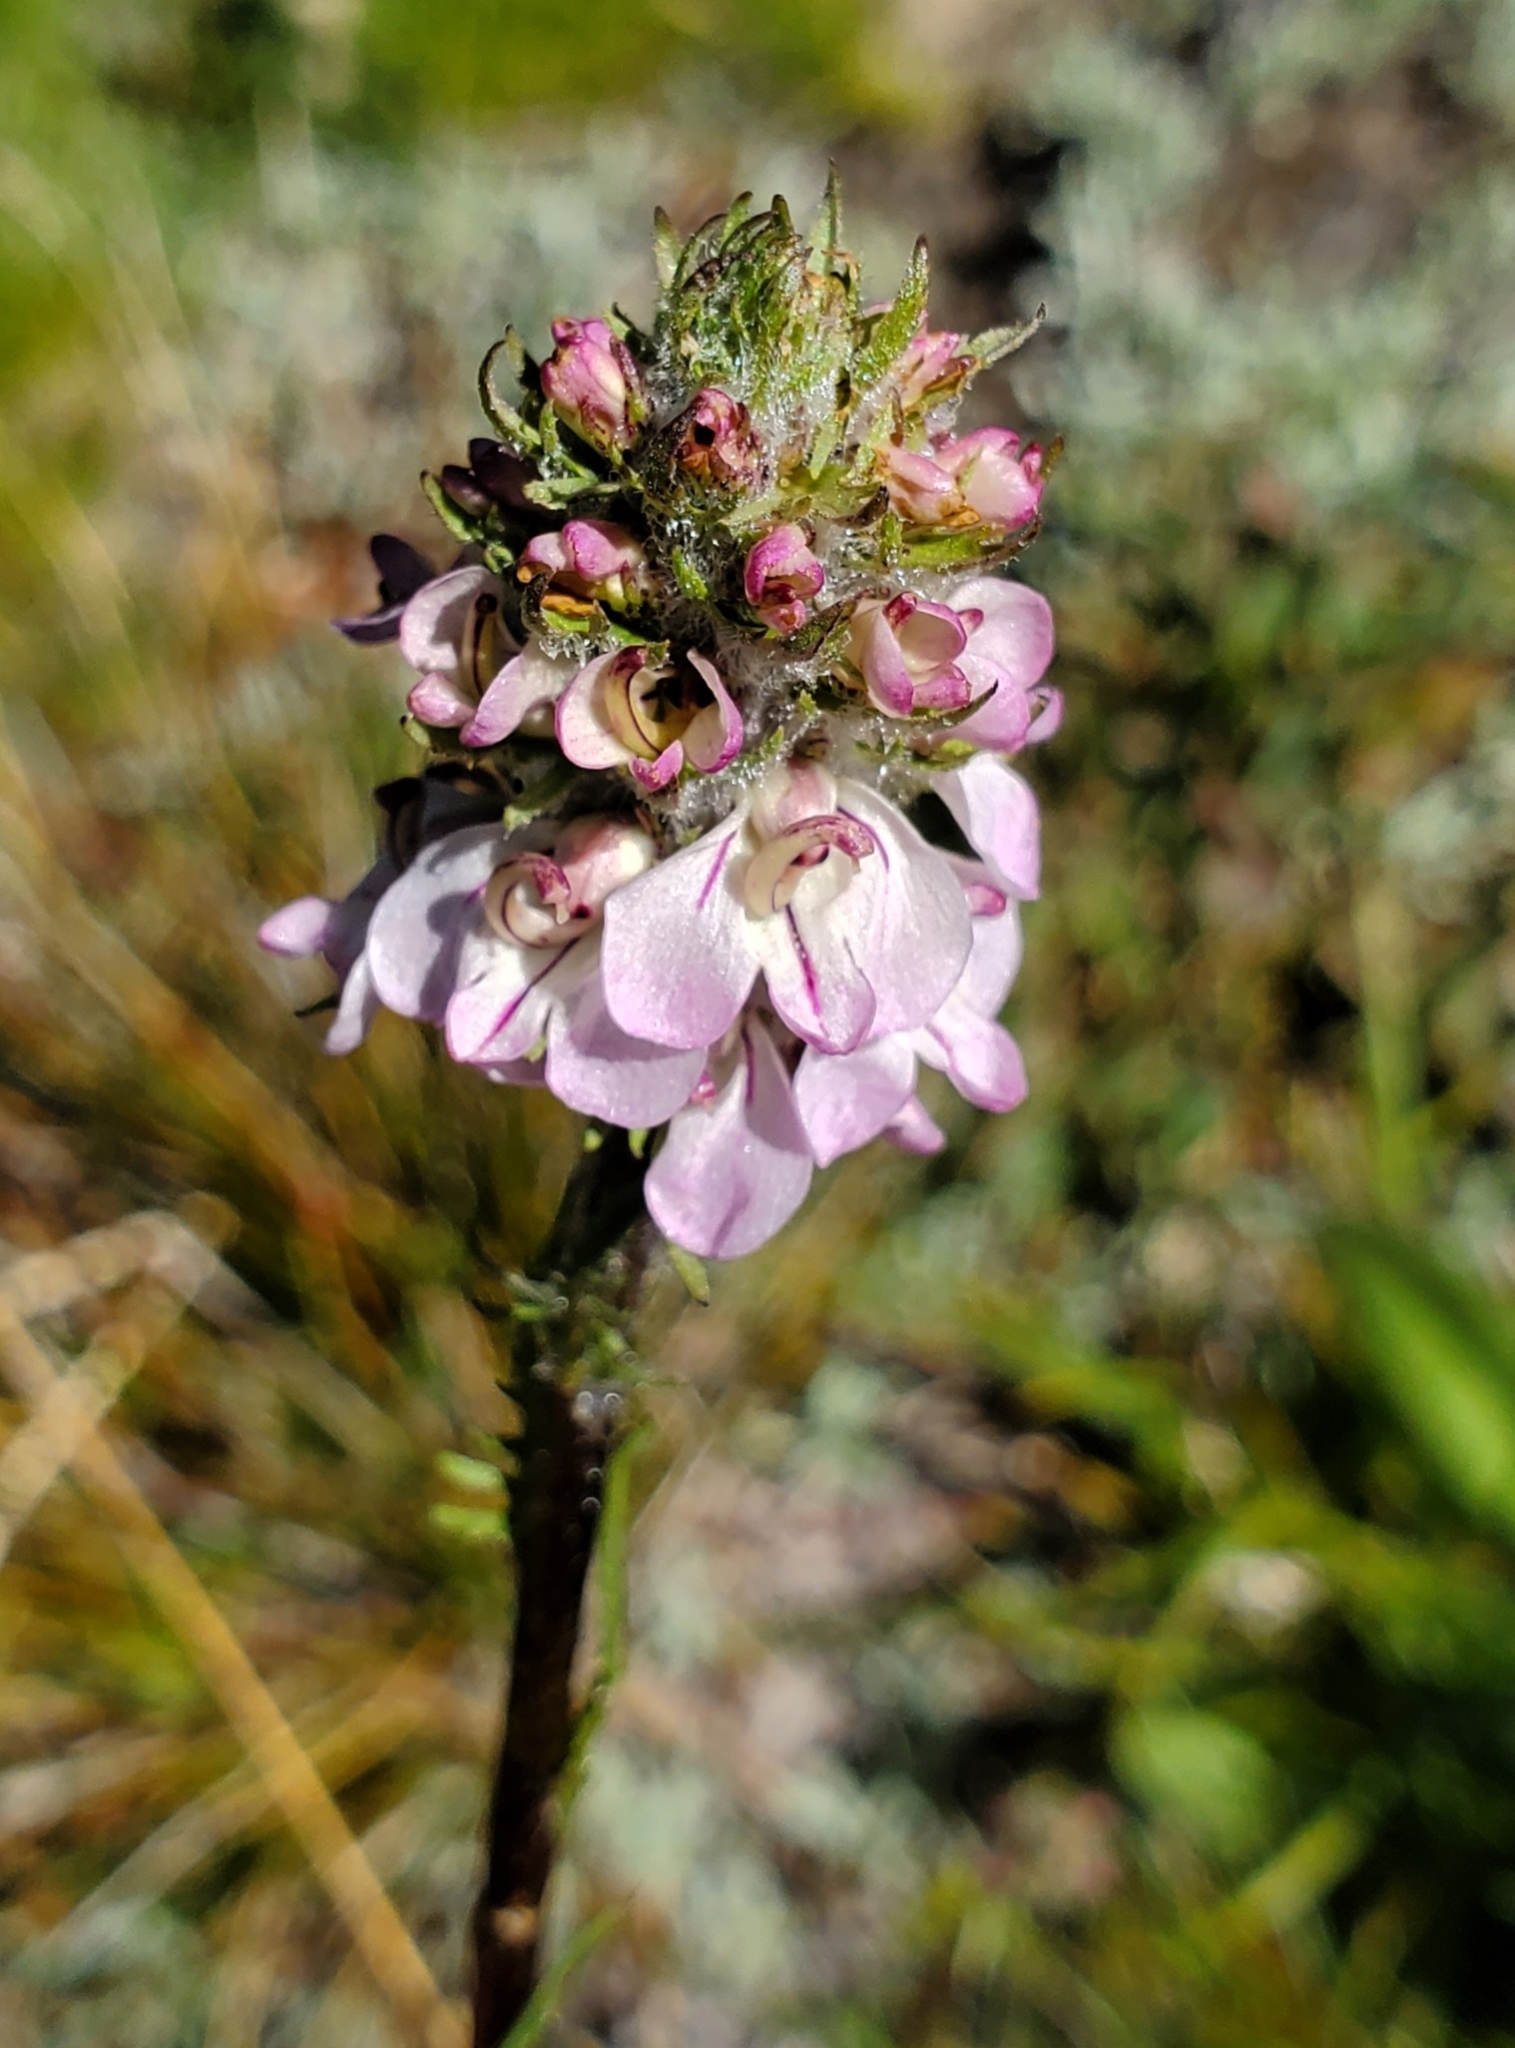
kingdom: Plantae
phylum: Tracheophyta
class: Magnoliopsida
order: Lamiales
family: Orobanchaceae
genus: Pedicularis
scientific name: Pedicularis attollens
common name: Slender pedicularis
